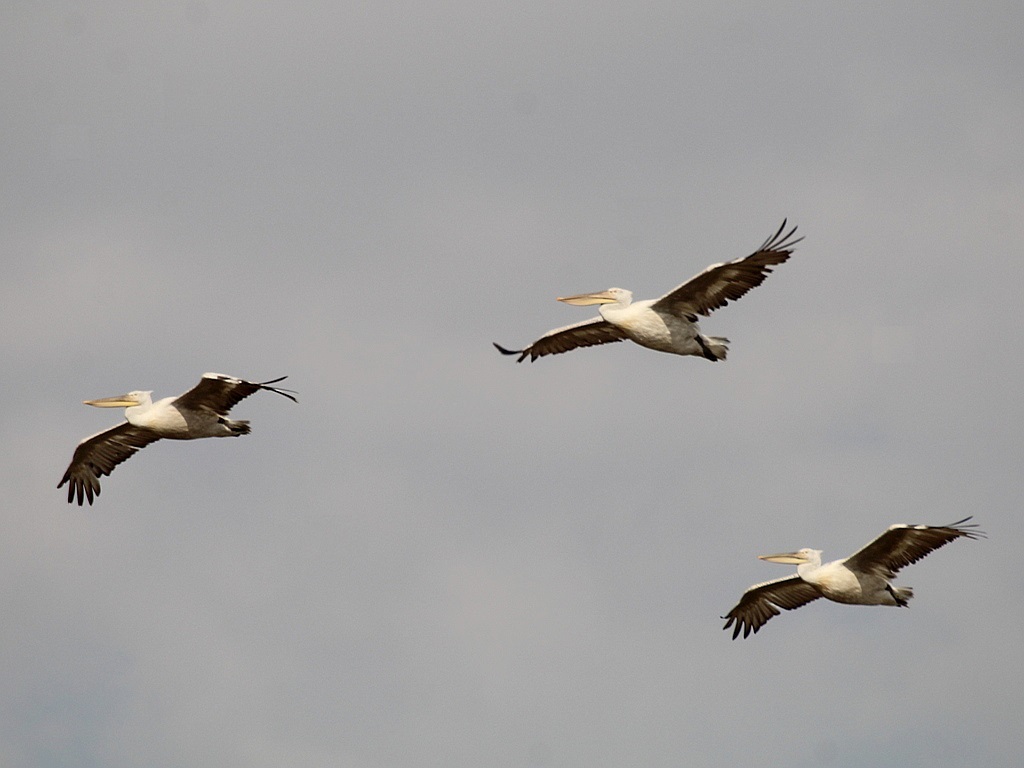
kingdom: Animalia
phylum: Chordata
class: Aves
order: Pelecaniformes
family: Pelecanidae
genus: Pelecanus
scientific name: Pelecanus crispus
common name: Dalmatian pelican
